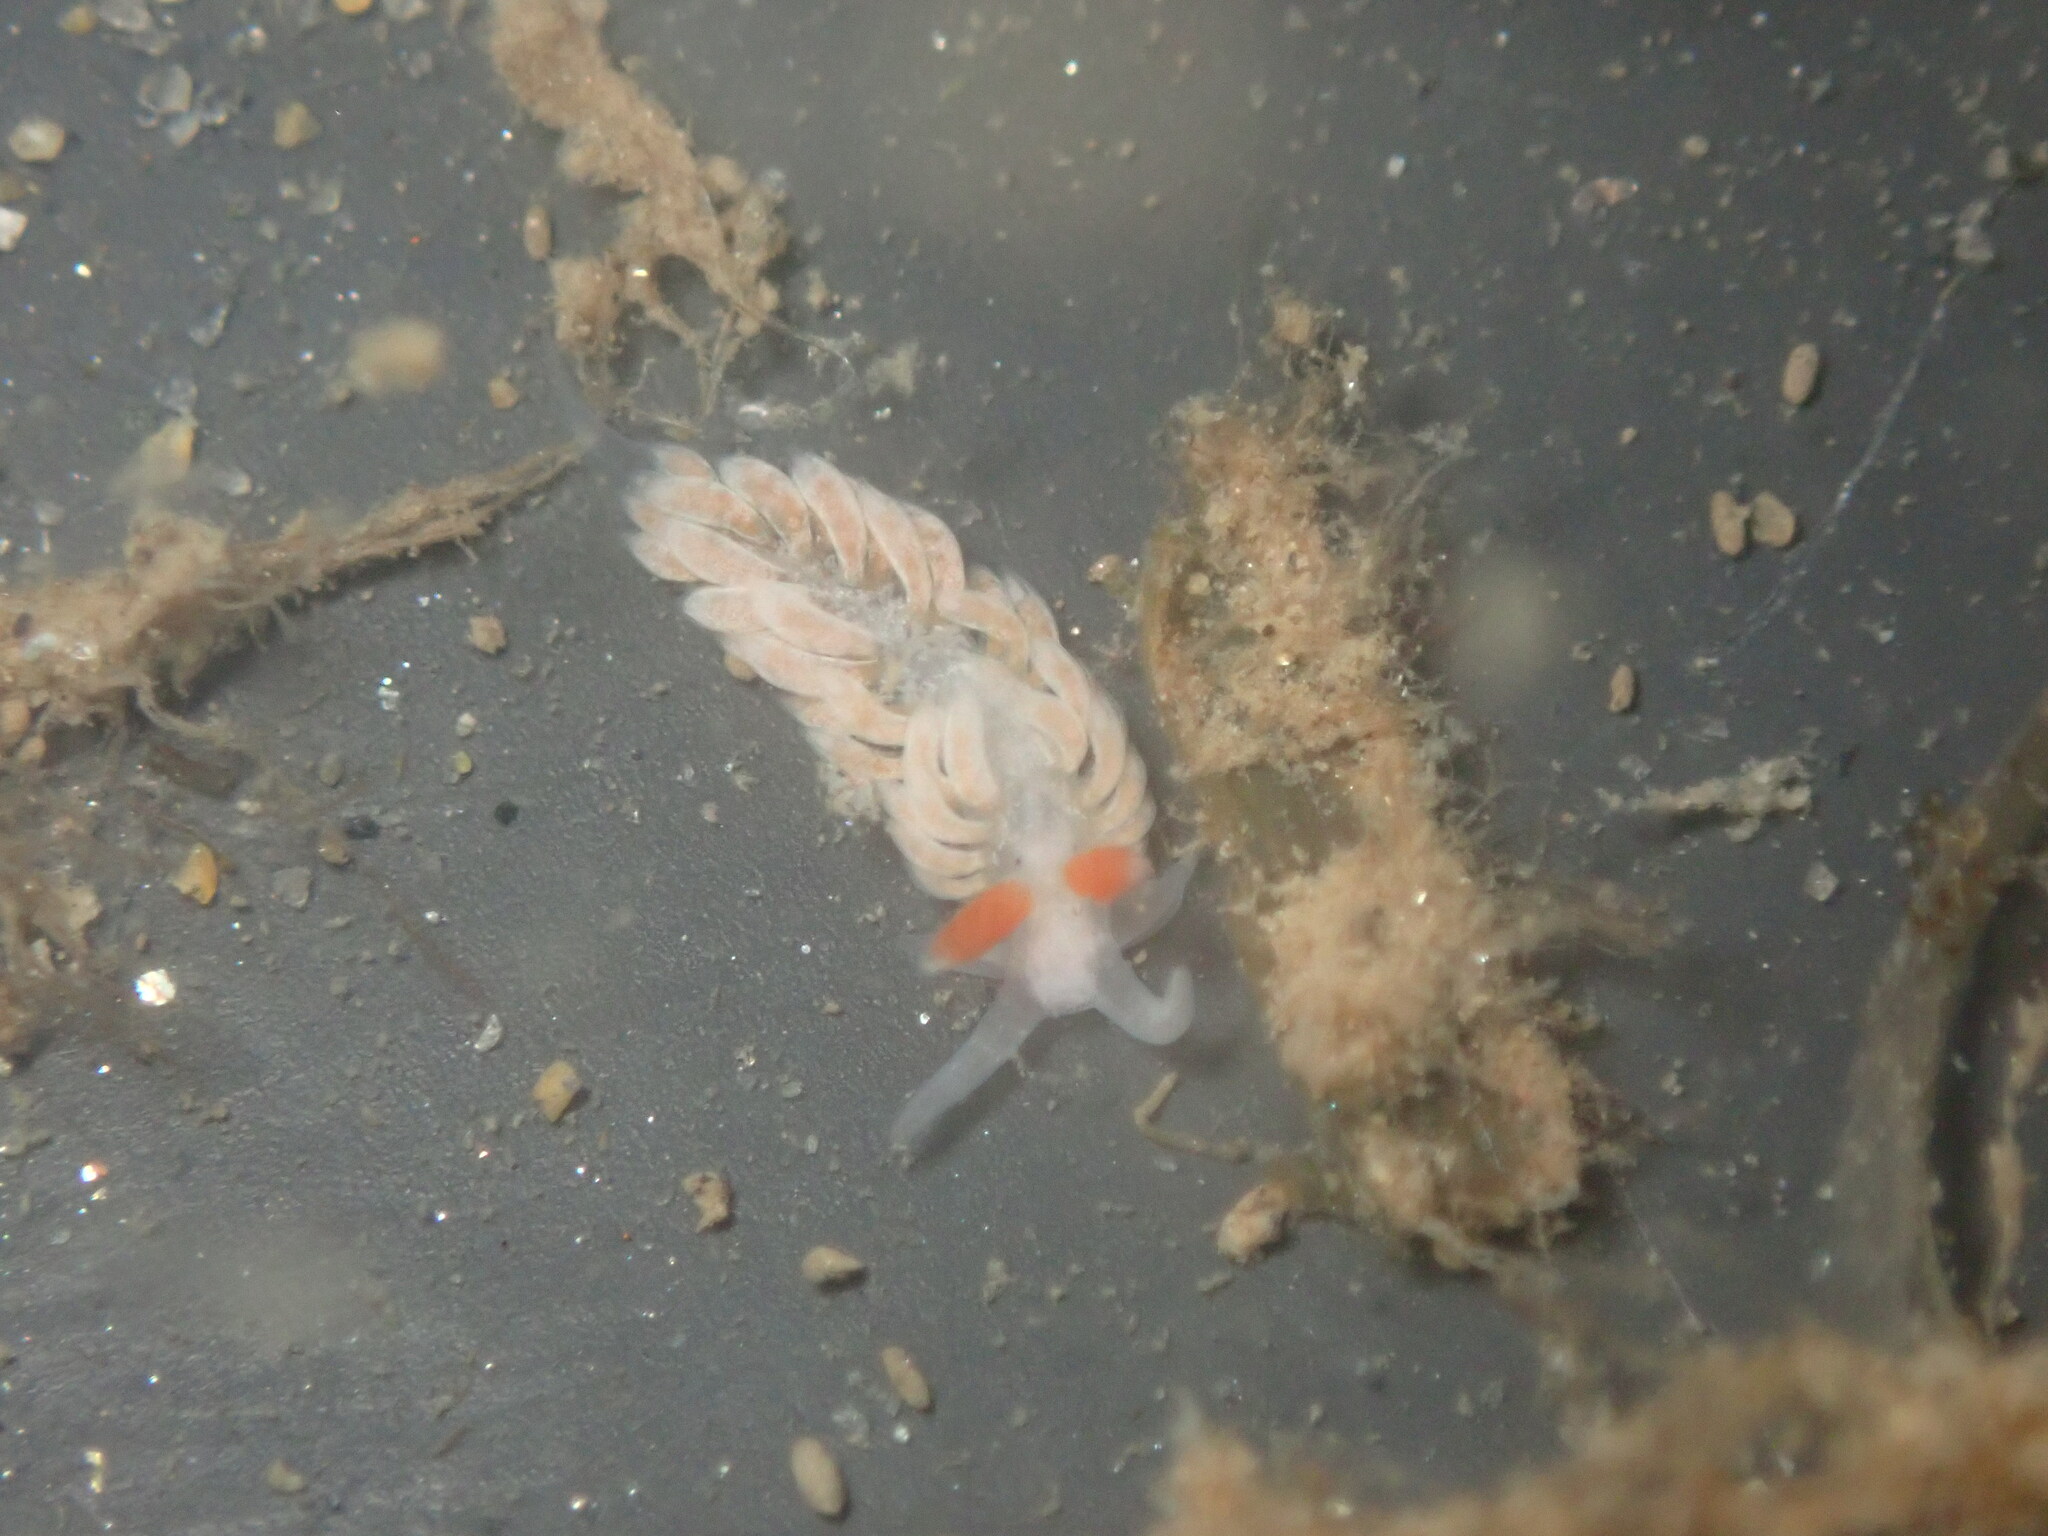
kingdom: Animalia
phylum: Mollusca
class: Gastropoda
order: Nudibranchia
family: Aeolidiidae
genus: Anteaeolidiella
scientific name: Anteaeolidiella oliviae
